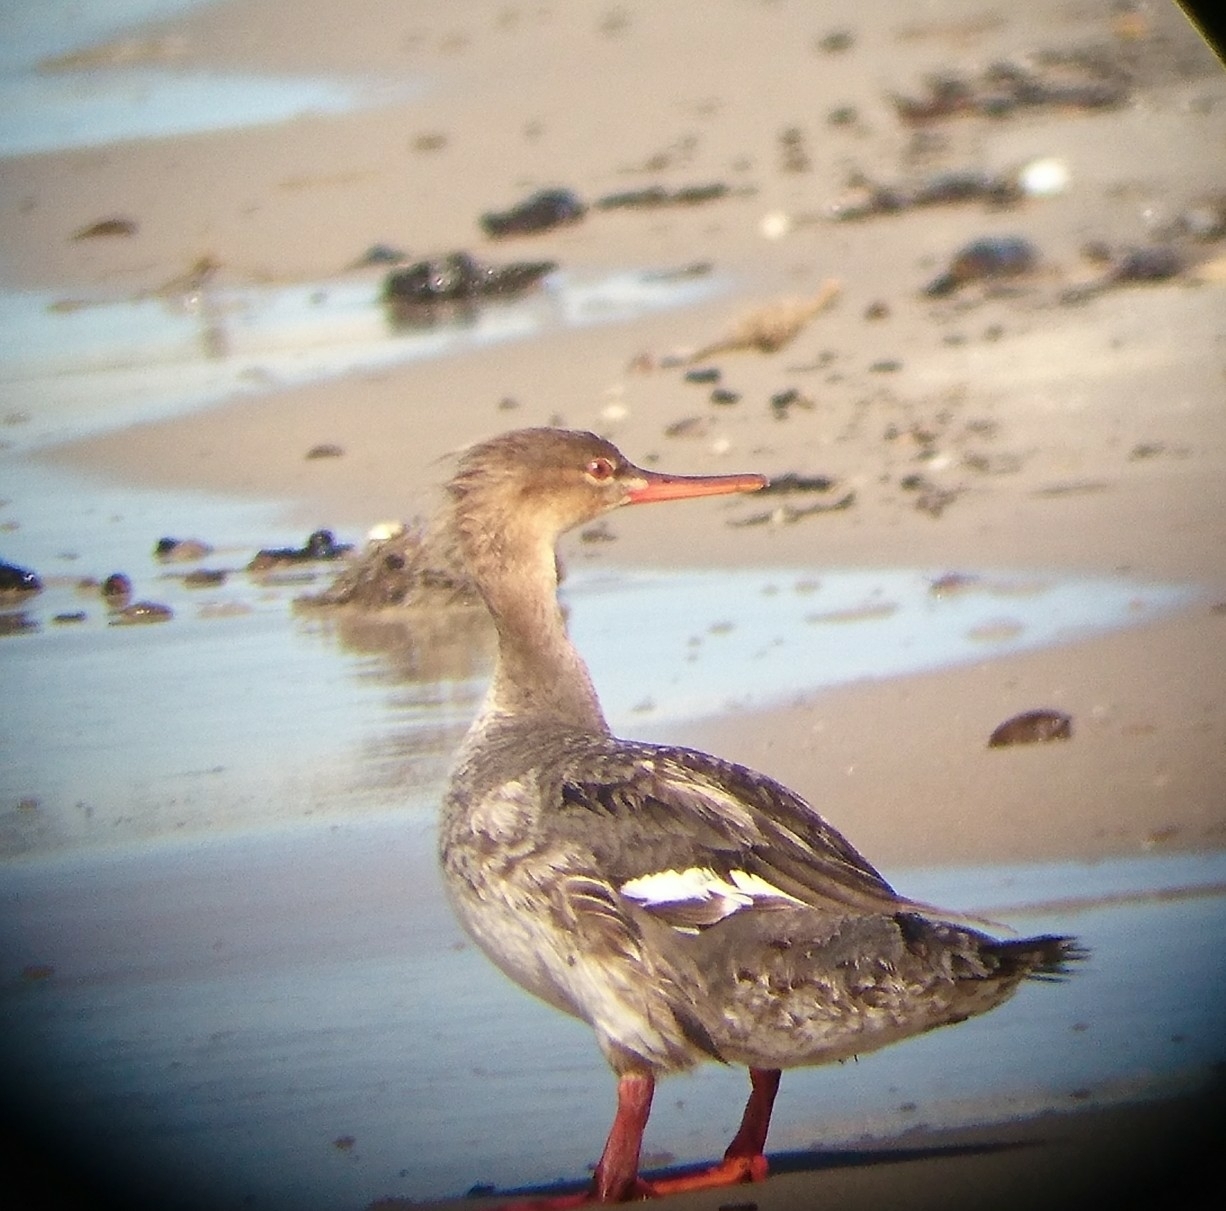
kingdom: Animalia
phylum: Chordata
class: Aves
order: Anseriformes
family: Anatidae
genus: Mergus
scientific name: Mergus serrator
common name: Red-breasted merganser
